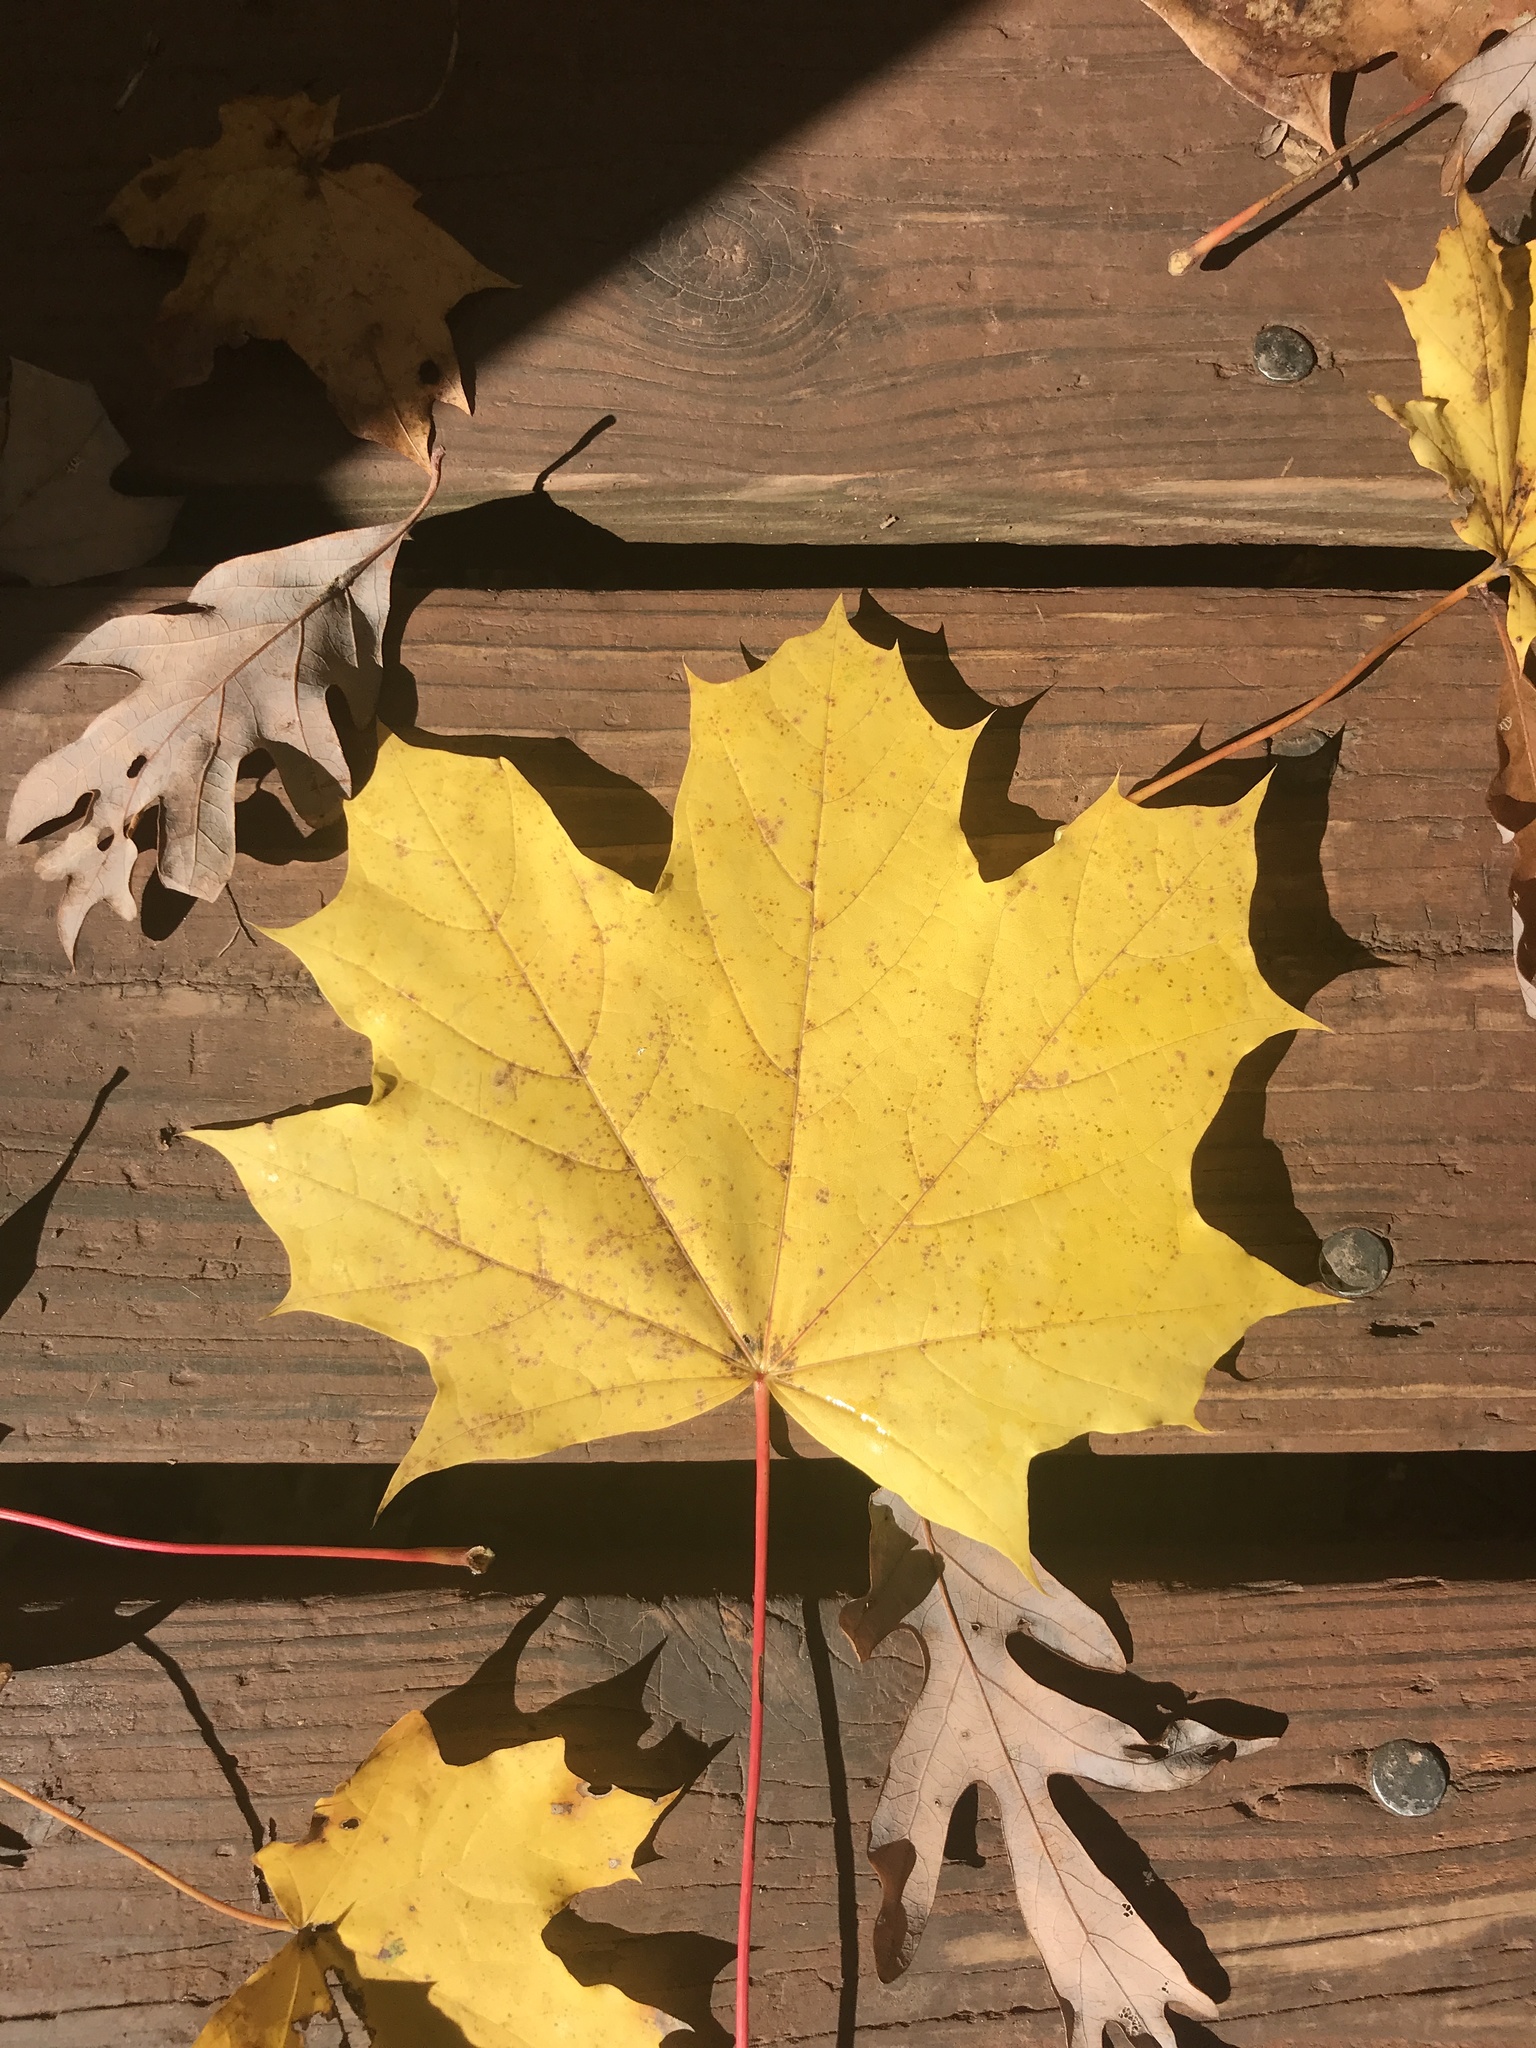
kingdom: Plantae
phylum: Tracheophyta
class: Magnoliopsida
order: Sapindales
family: Sapindaceae
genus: Acer
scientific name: Acer platanoides
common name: Norway maple
